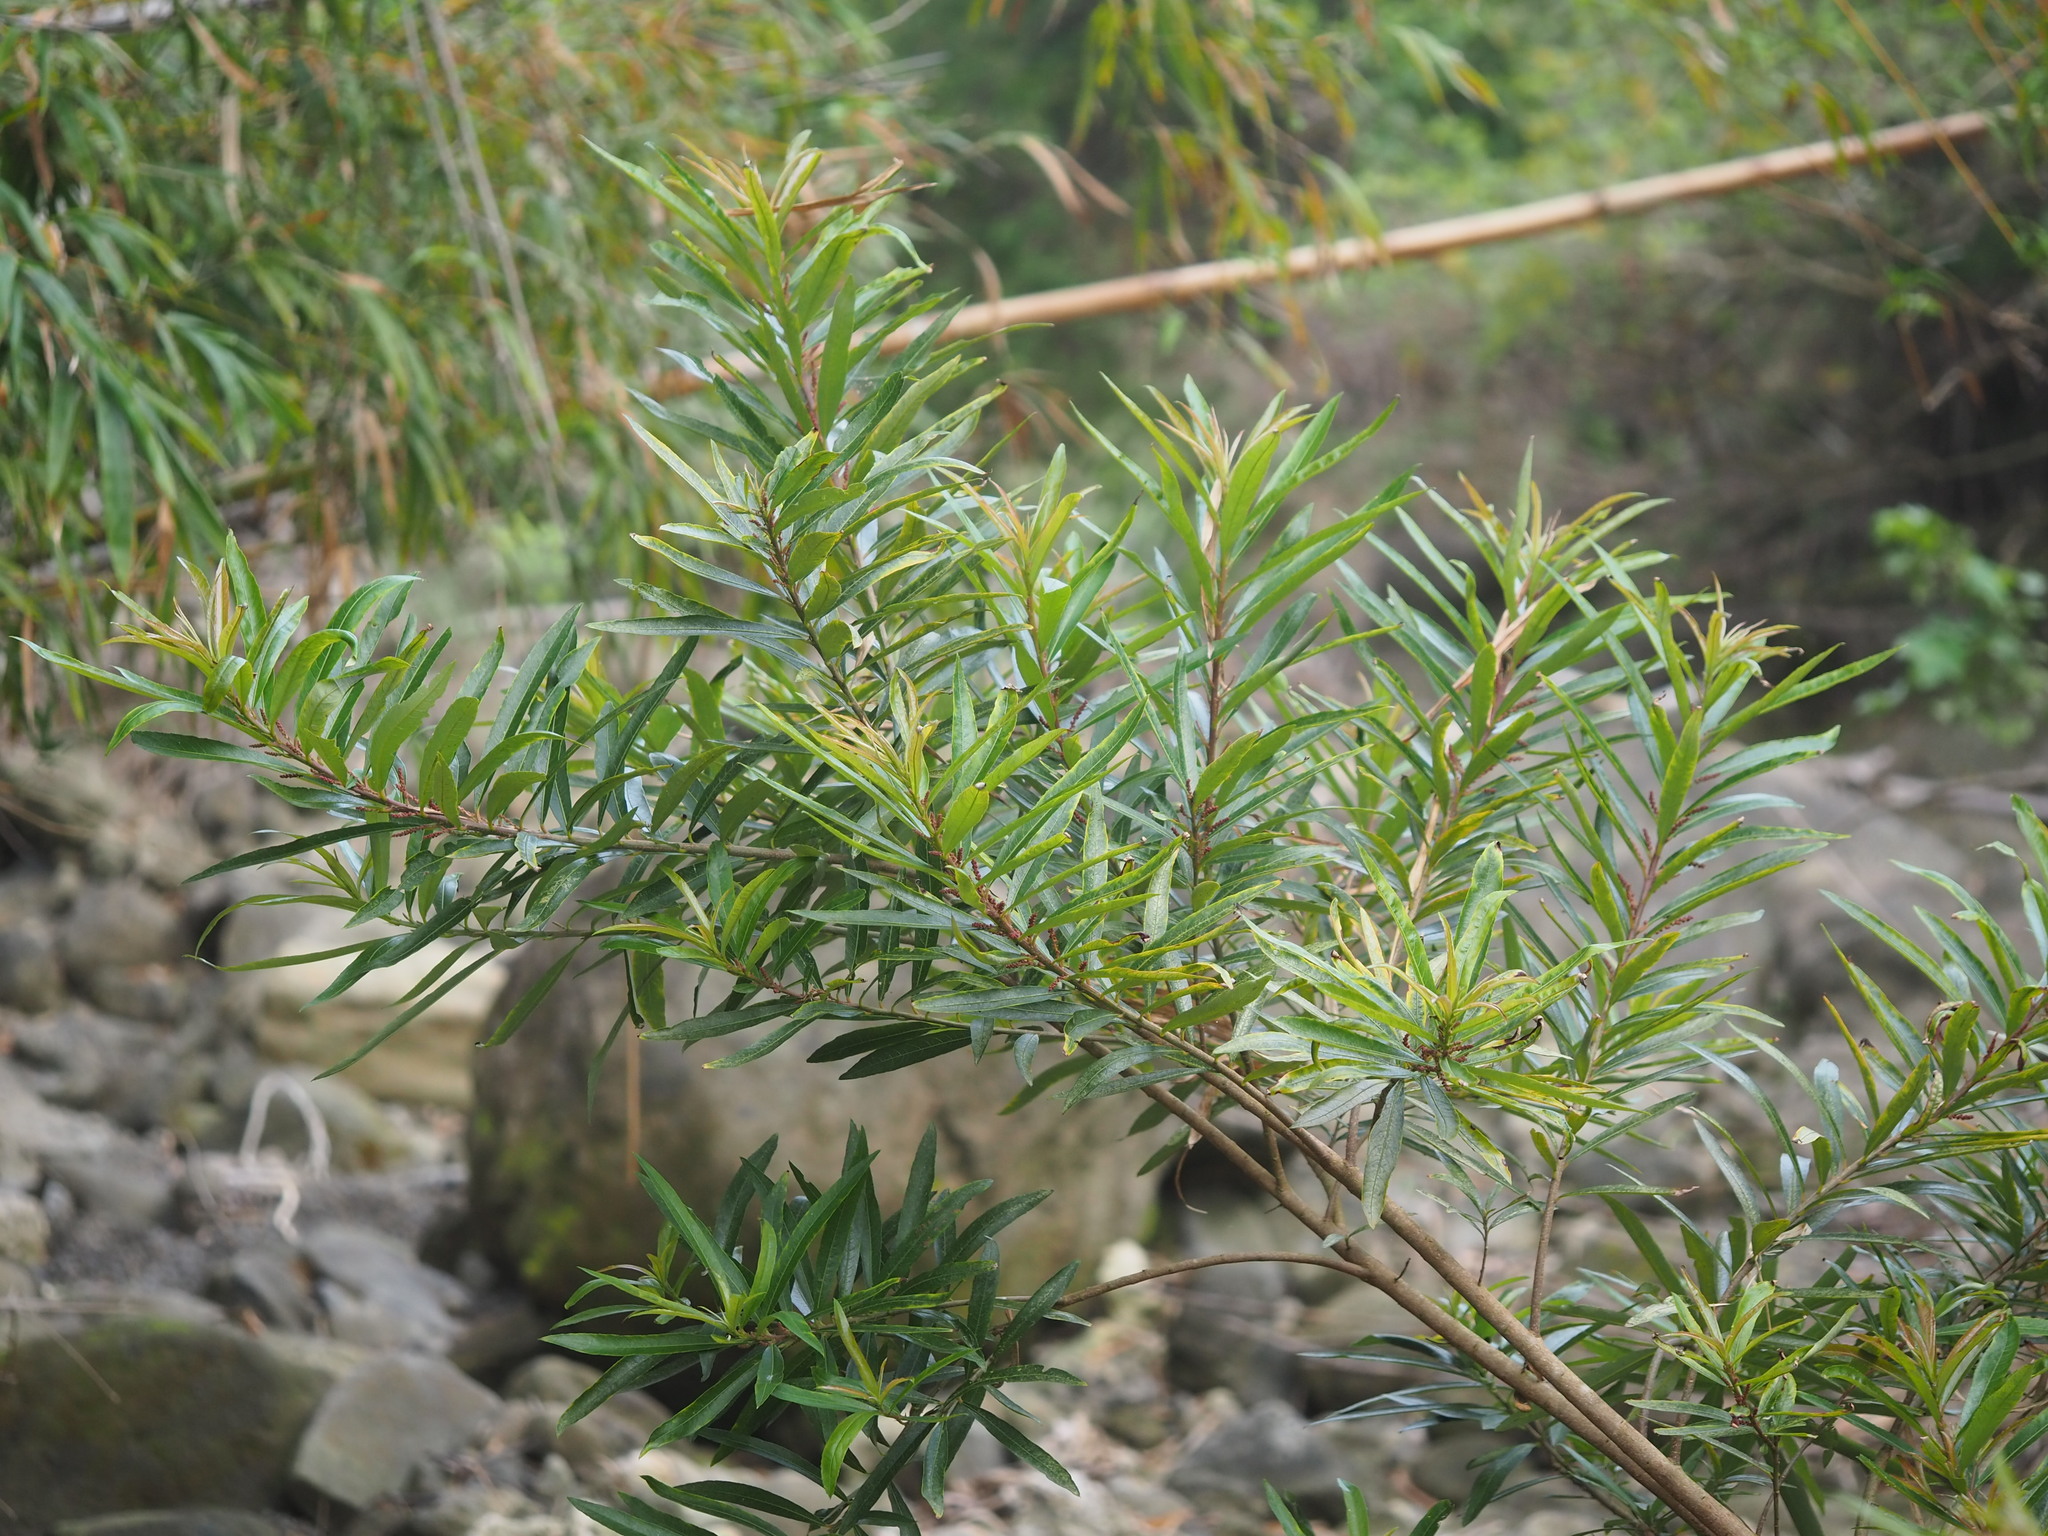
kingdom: Plantae
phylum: Tracheophyta
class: Magnoliopsida
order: Malpighiales
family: Euphorbiaceae
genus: Homonoia
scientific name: Homonoia riparia
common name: Willow-leaved water croton
